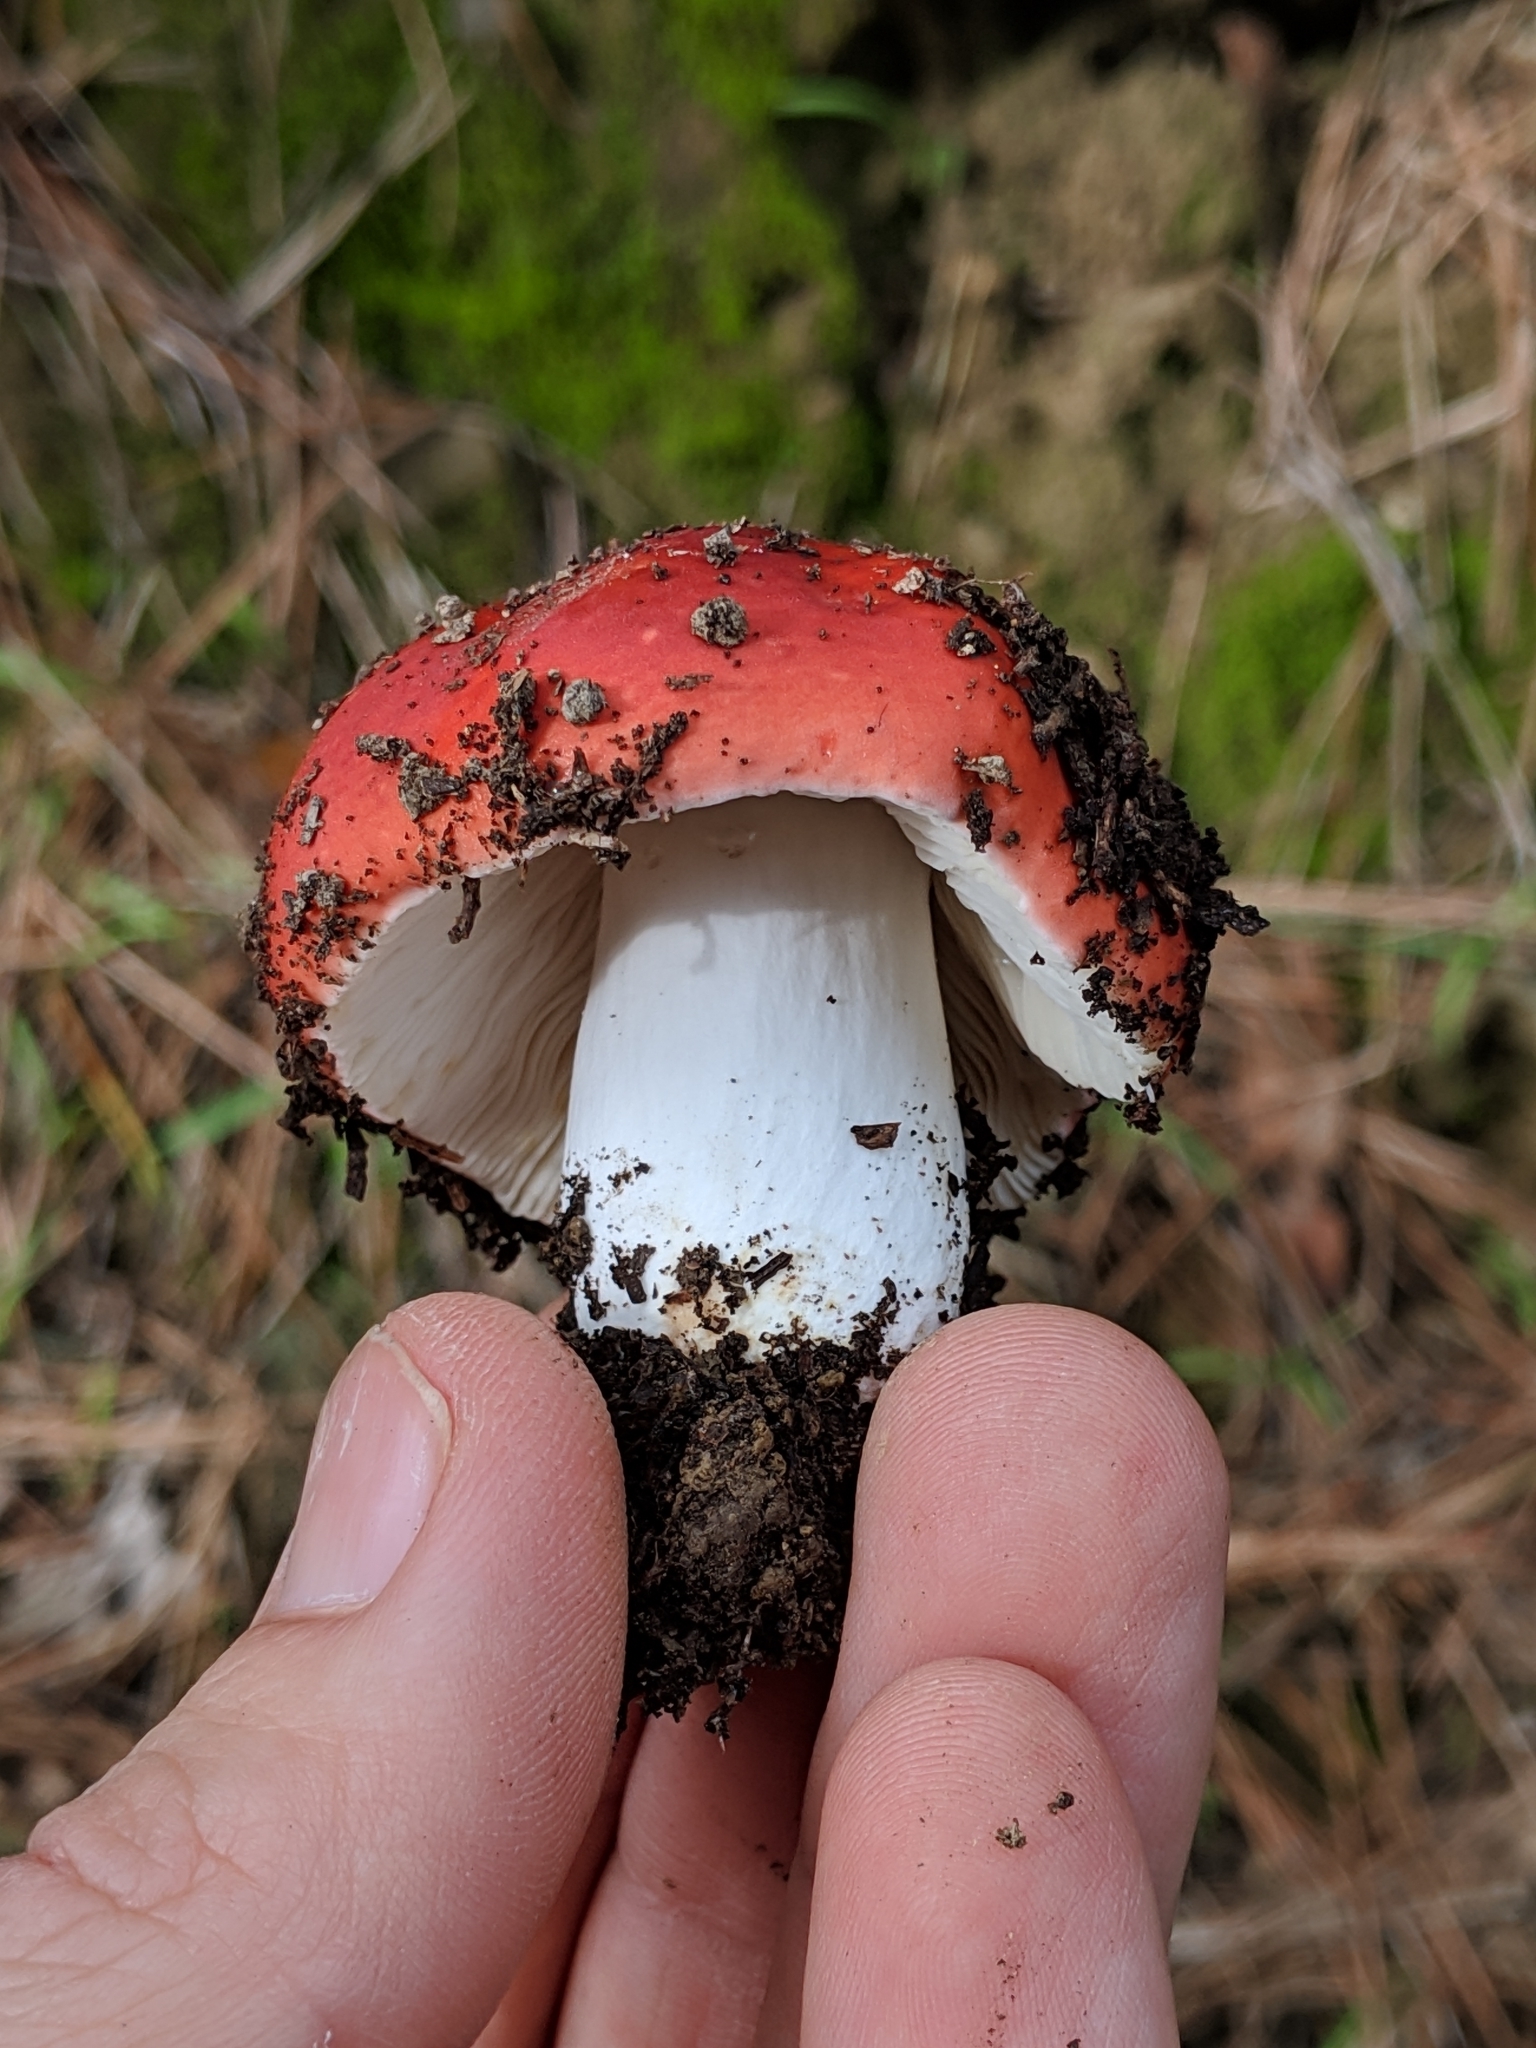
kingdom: Fungi
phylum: Basidiomycota
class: Agaricomycetes
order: Russulales
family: Russulaceae
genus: Russula
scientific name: Russula californiensis
